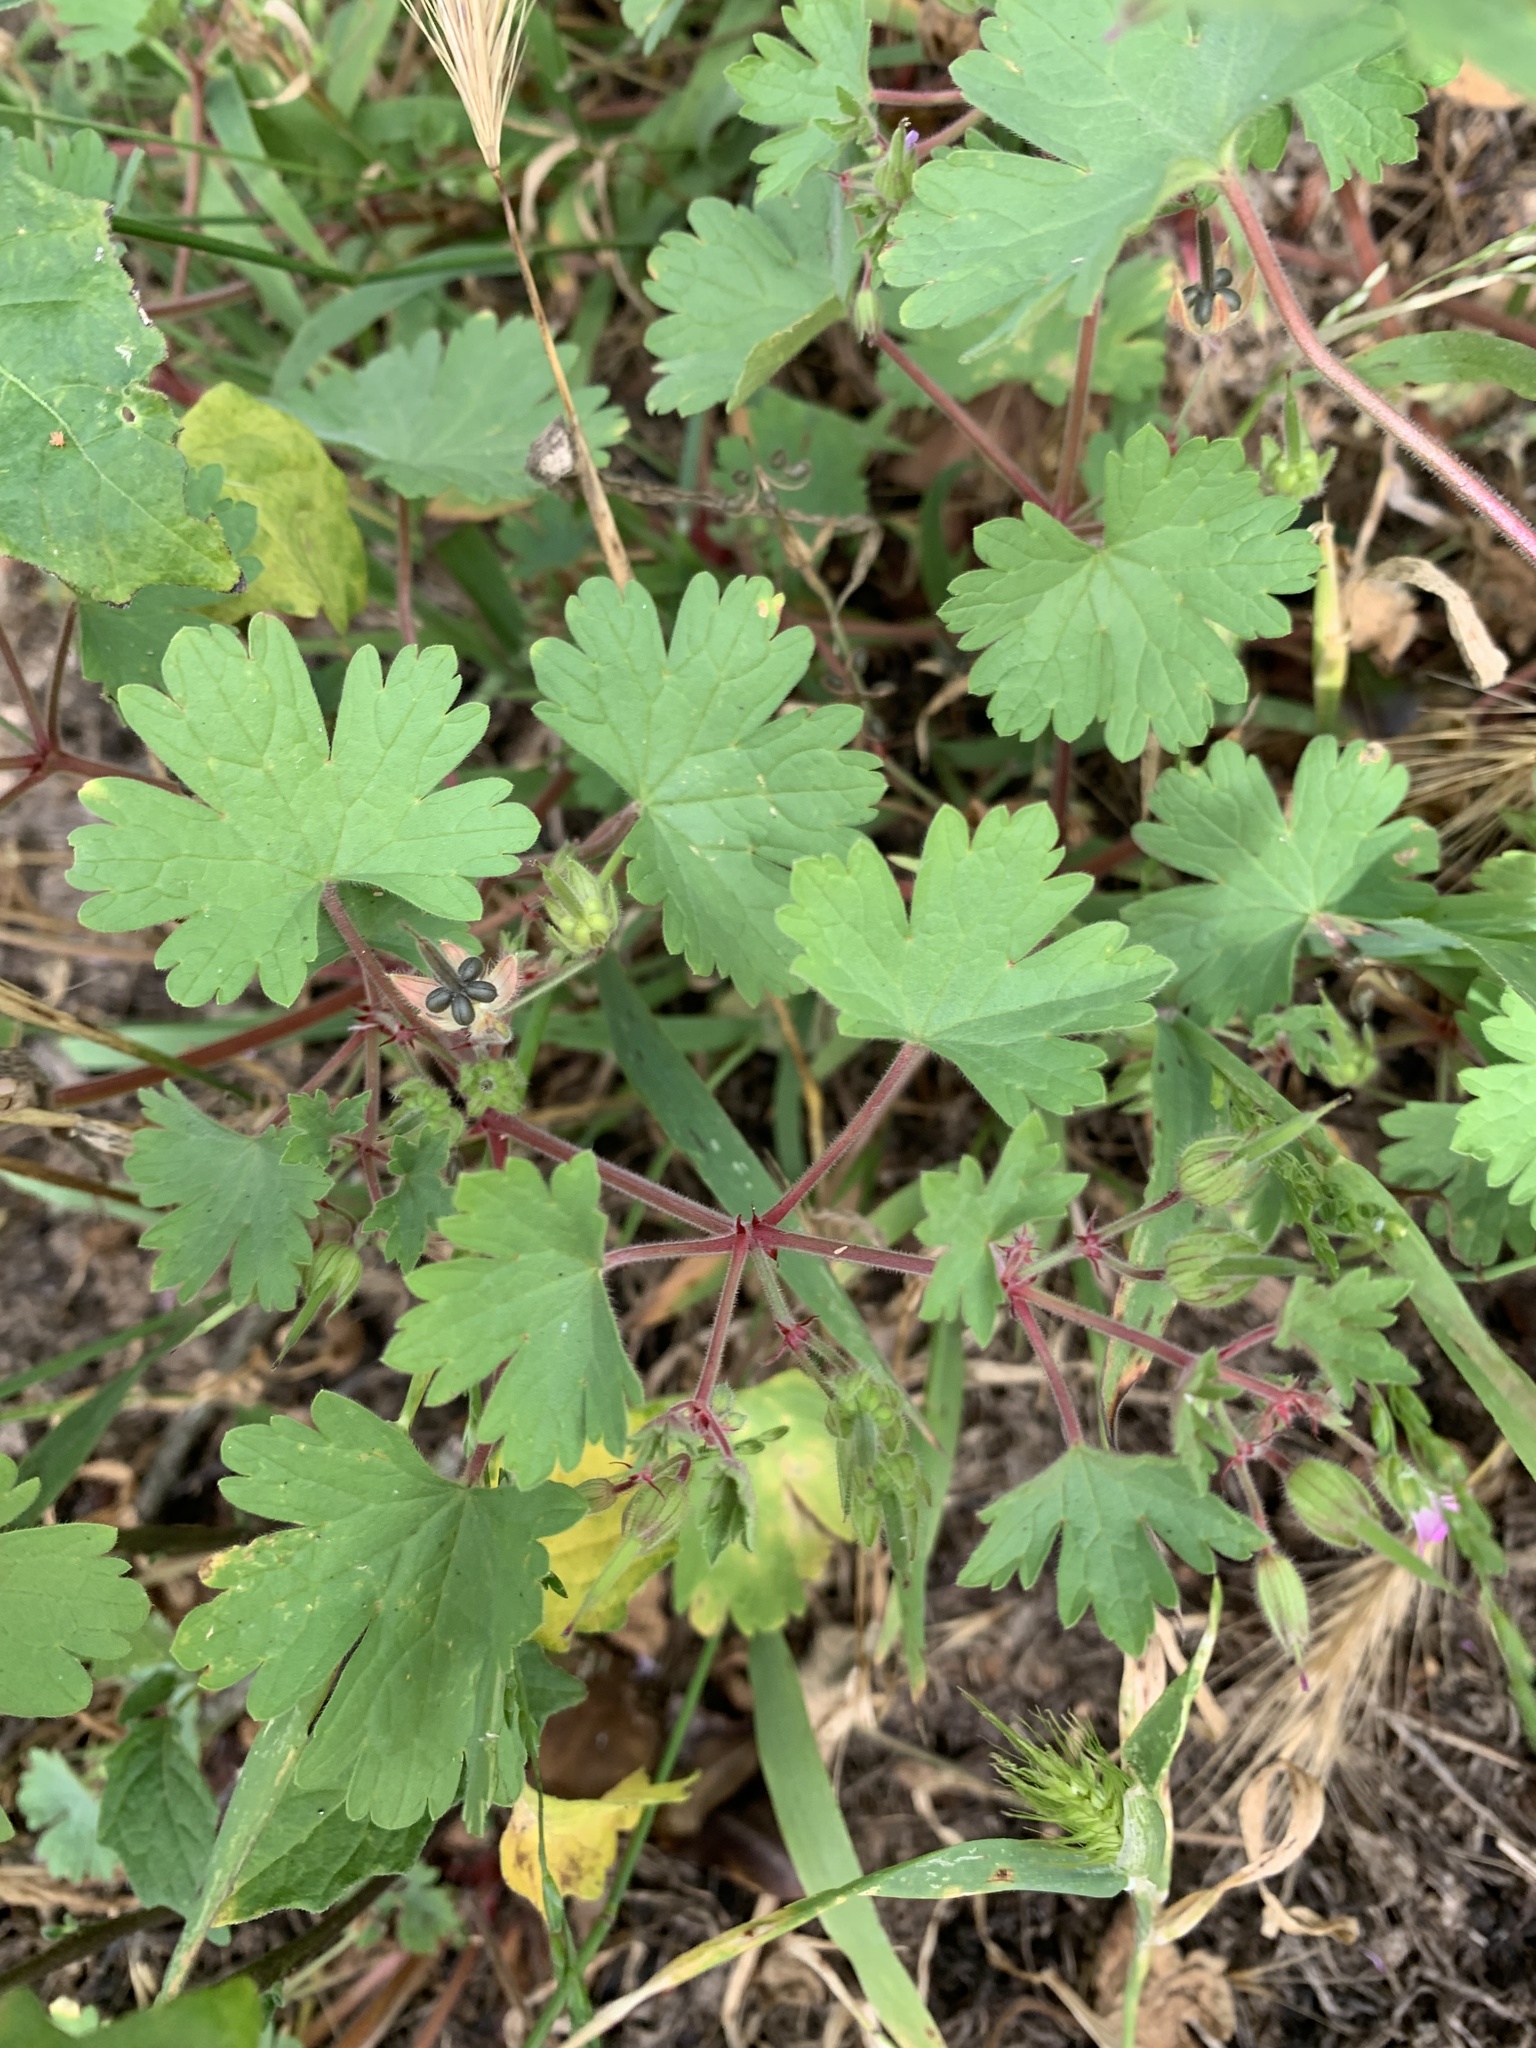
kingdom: Plantae
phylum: Tracheophyta
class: Magnoliopsida
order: Geraniales
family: Geraniaceae
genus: Geranium
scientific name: Geranium rotundifolium
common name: Round-leaved crane's-bill
